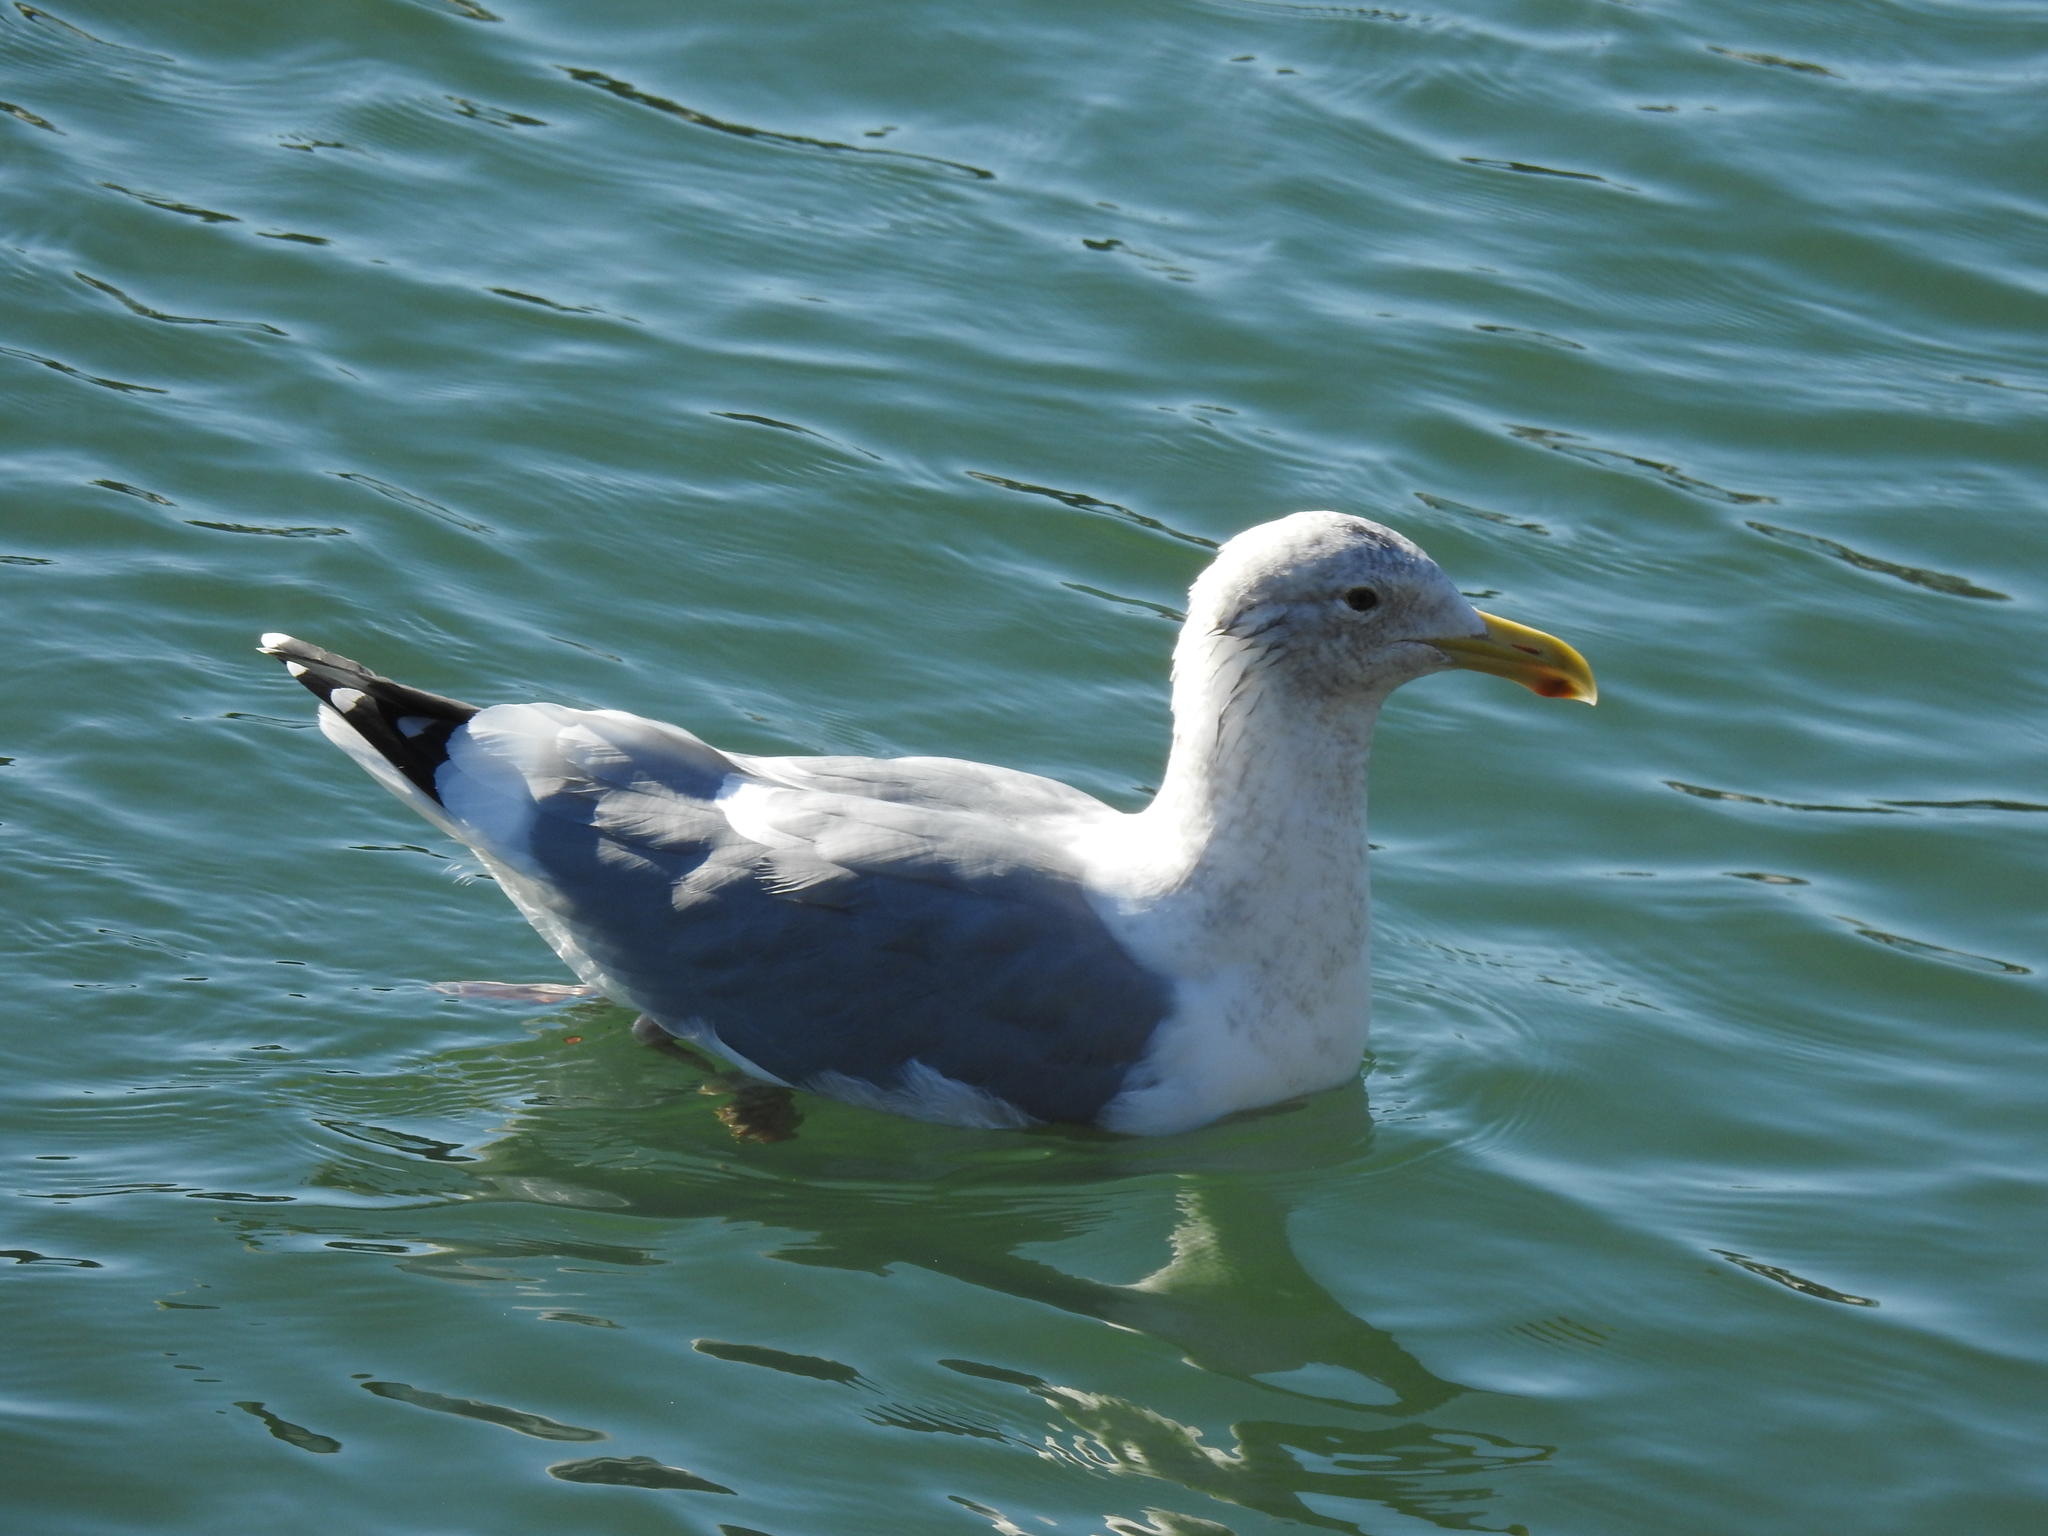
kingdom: Animalia
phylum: Chordata
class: Aves
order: Charadriiformes
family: Laridae
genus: Larus
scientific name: Larus occidentalis
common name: Western gull
